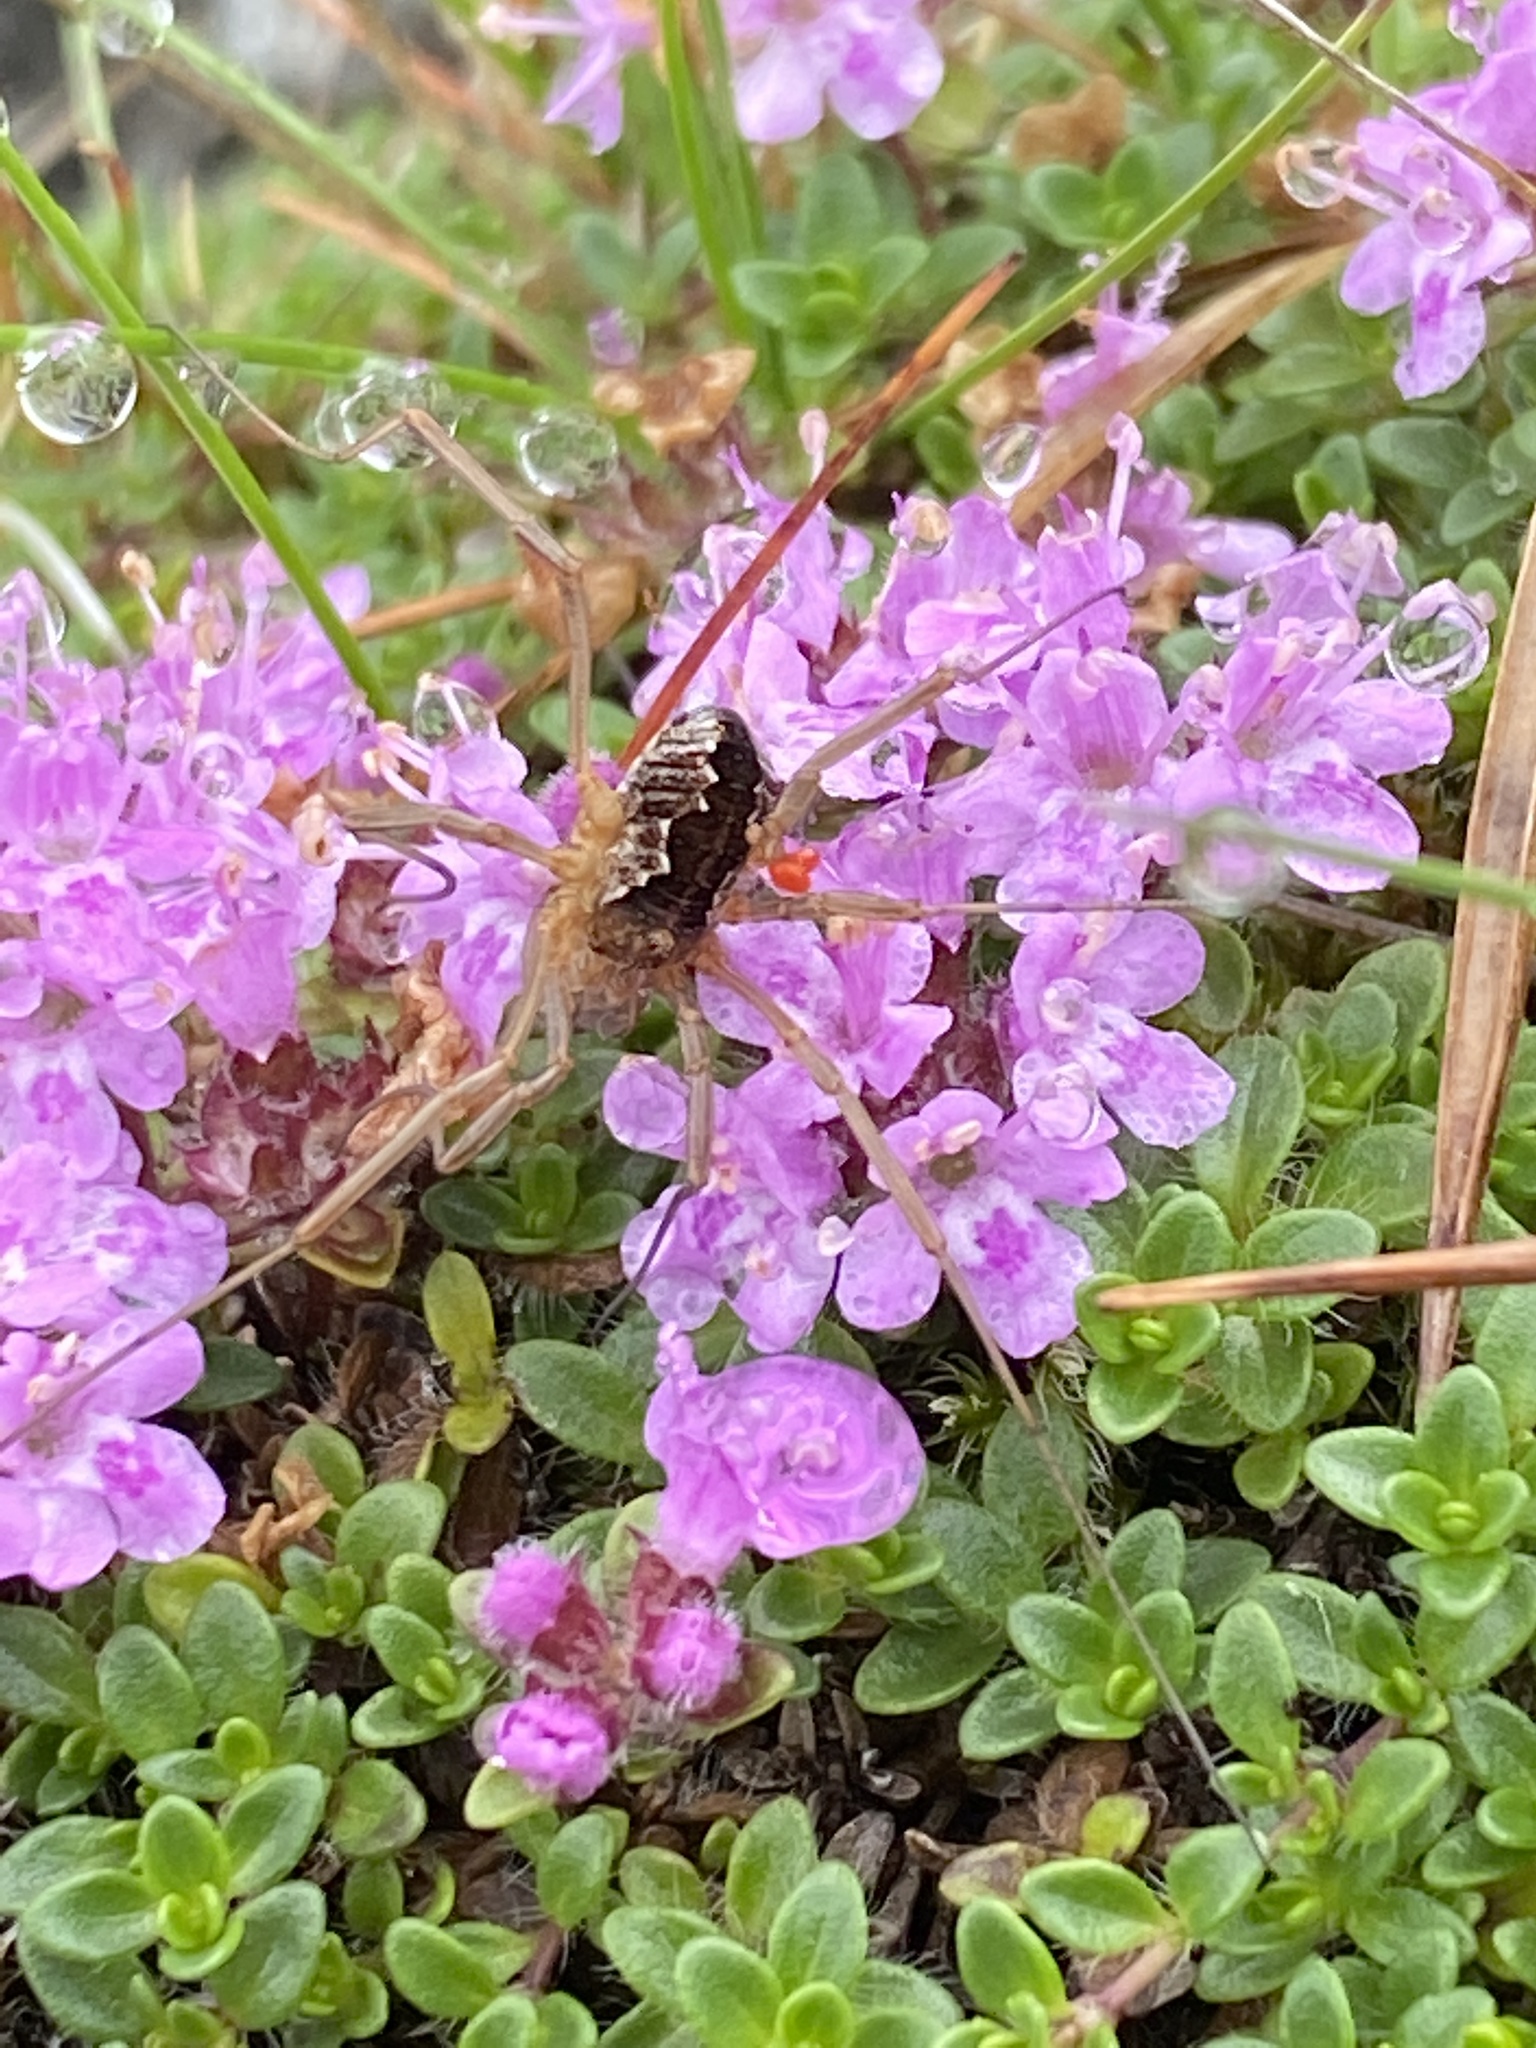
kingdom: Animalia
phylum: Arthropoda
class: Arachnida
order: Opiliones
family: Phalangiidae
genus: Mitopus
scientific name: Mitopus morio
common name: Saddleback harvestman
